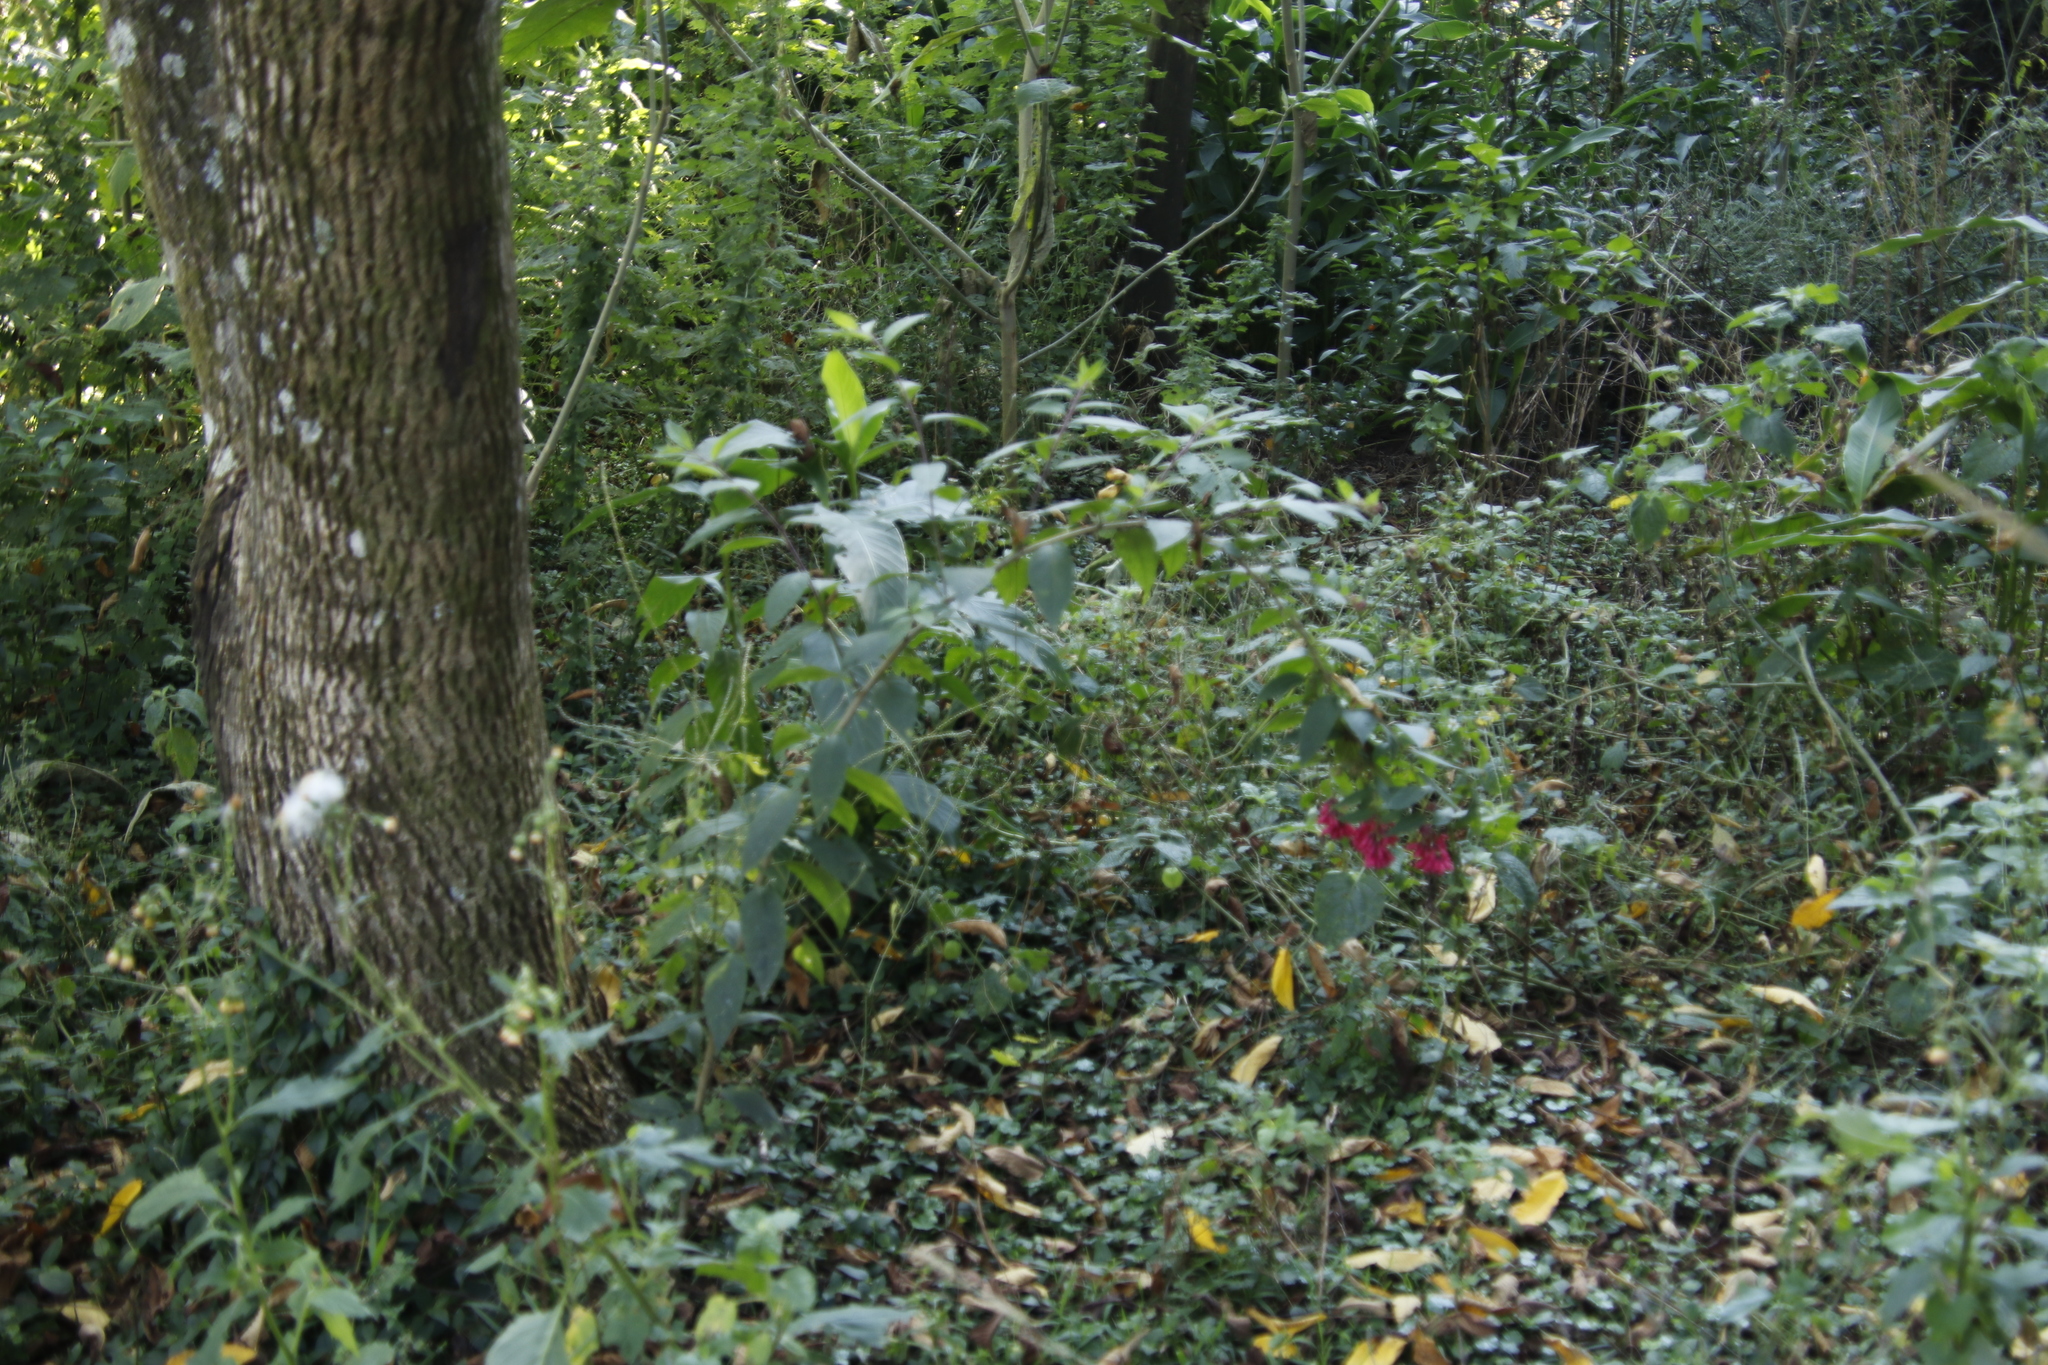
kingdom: Plantae
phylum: Tracheophyta
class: Magnoliopsida
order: Solanales
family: Solanaceae
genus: Cestrum
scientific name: Cestrum elegans
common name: Crimson cestrum
